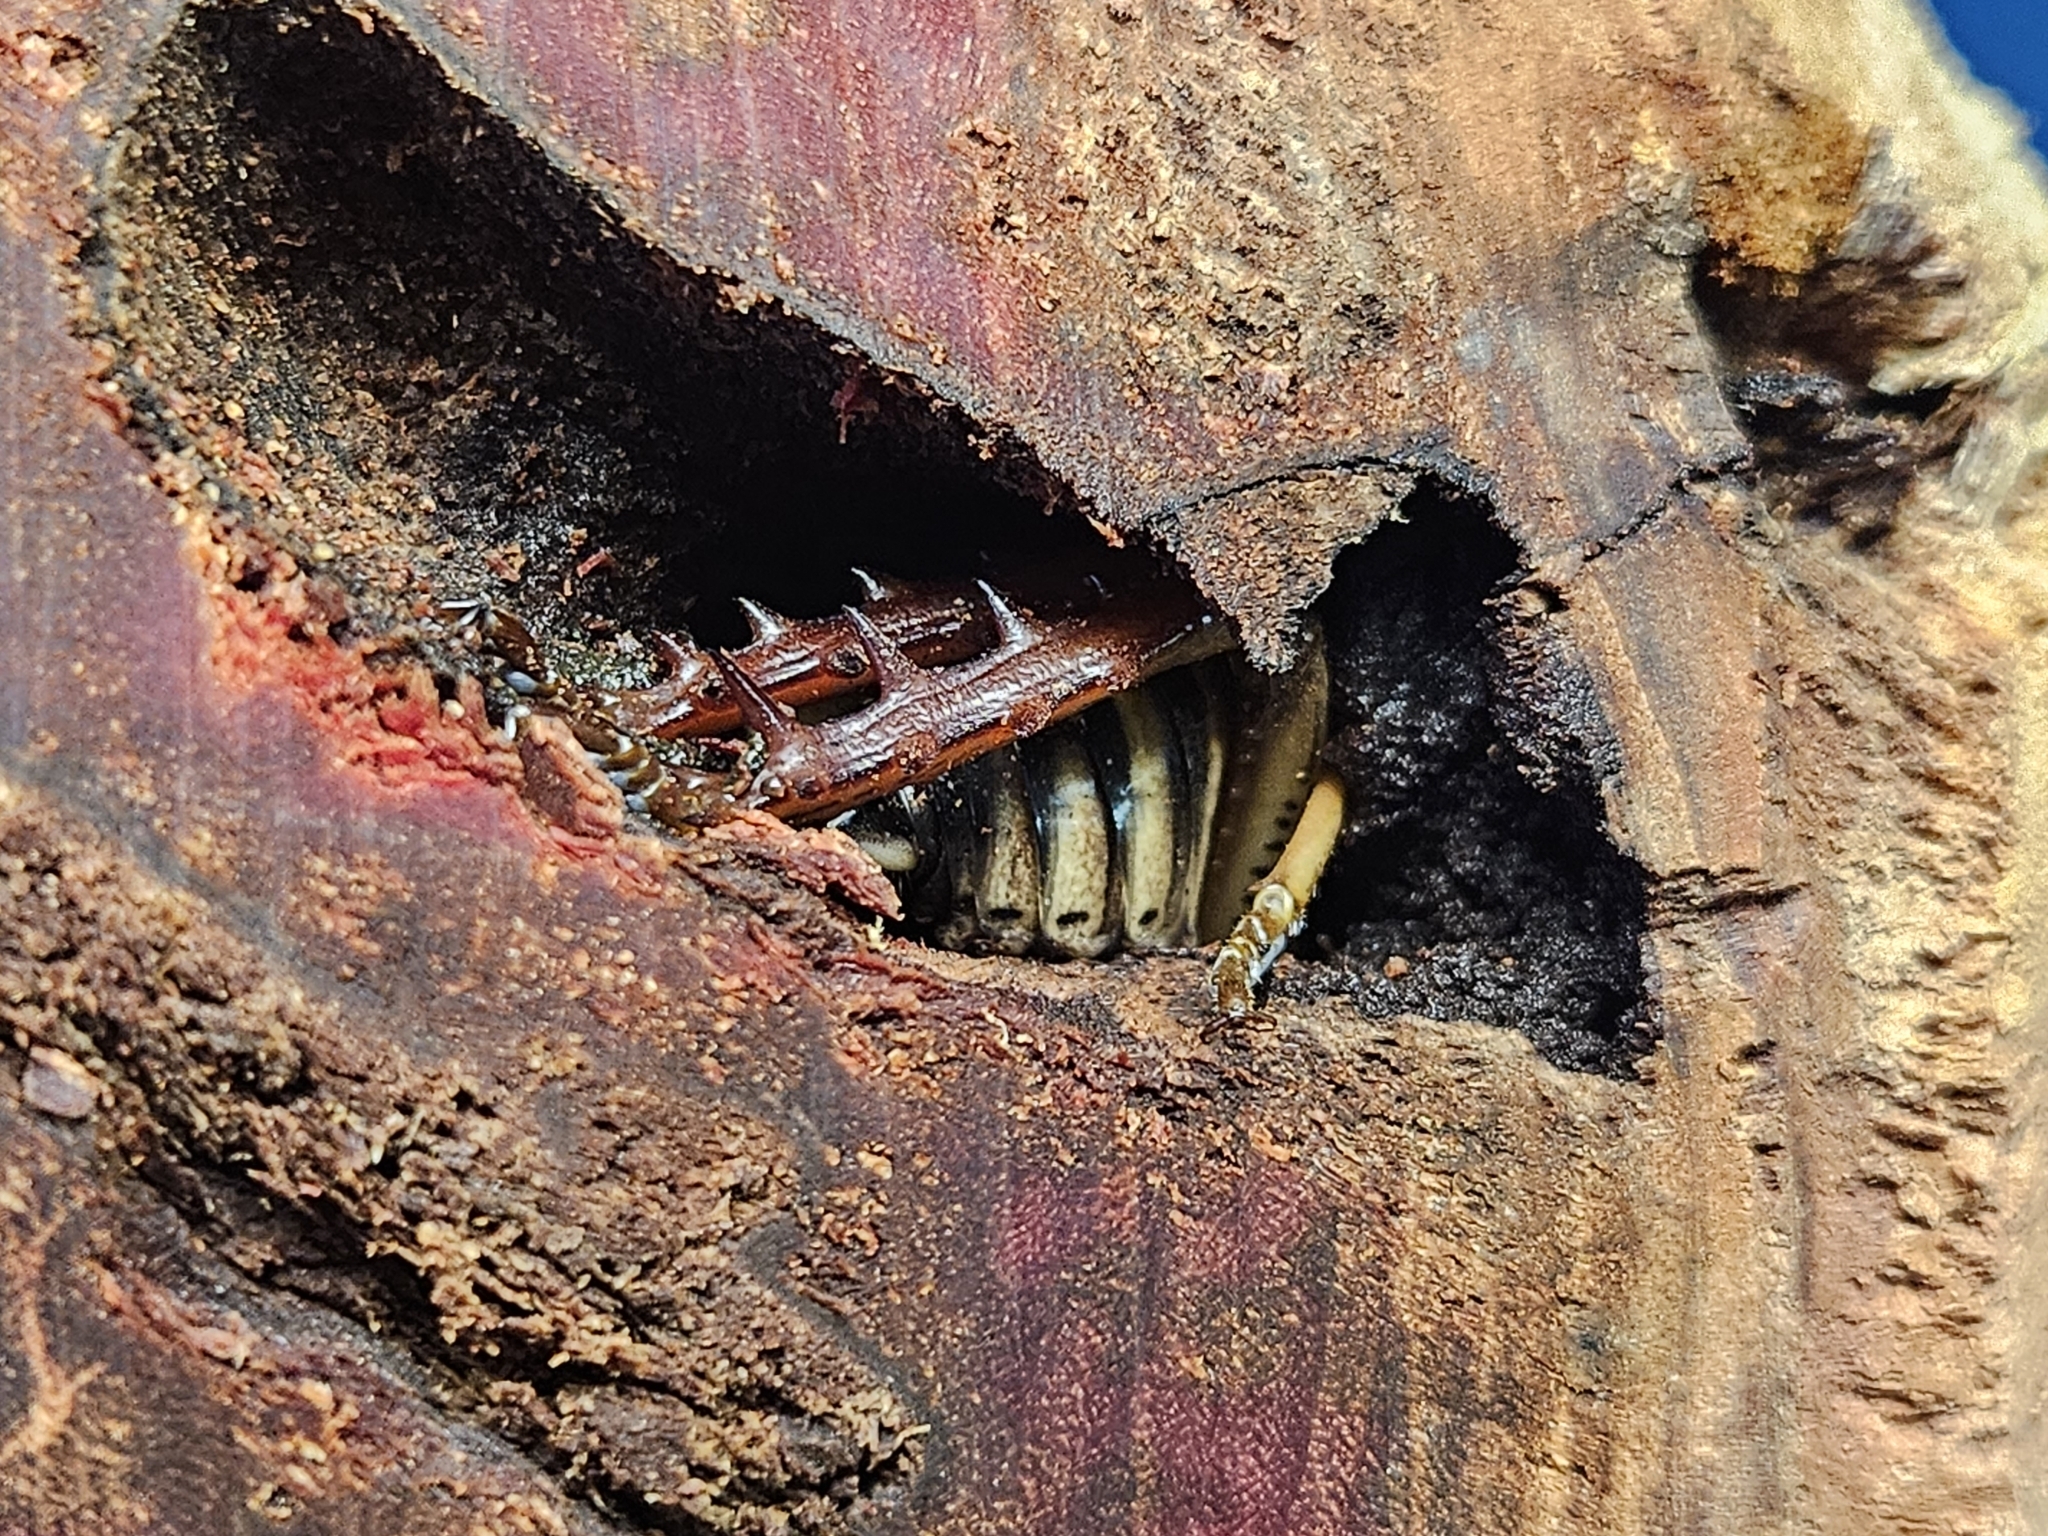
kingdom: Animalia
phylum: Arthropoda
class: Insecta
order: Orthoptera
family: Anostostomatidae
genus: Hemideina
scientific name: Hemideina crassidens
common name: Wellington tree weta
